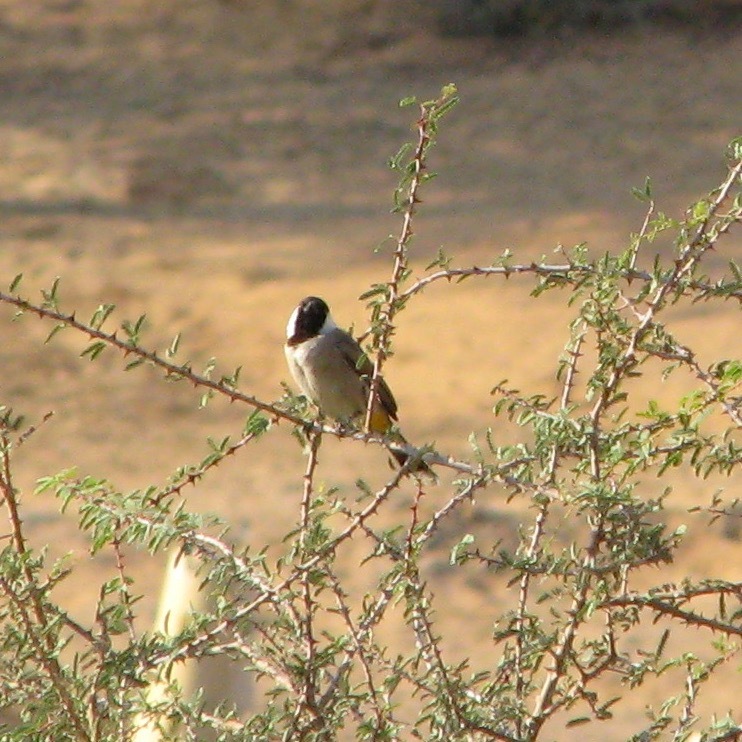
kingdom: Animalia
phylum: Chordata
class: Aves
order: Passeriformes
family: Pycnonotidae
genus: Pycnonotus
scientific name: Pycnonotus leucotis
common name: White-eared bulbul
